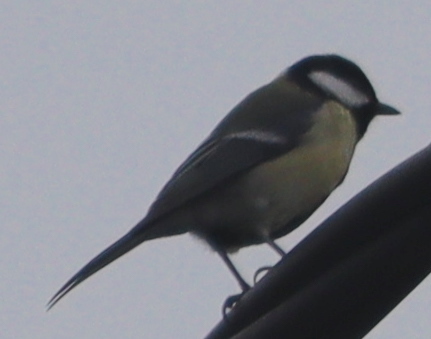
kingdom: Animalia
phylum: Chordata
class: Aves
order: Passeriformes
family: Paridae
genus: Parus
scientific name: Parus major
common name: Great tit
